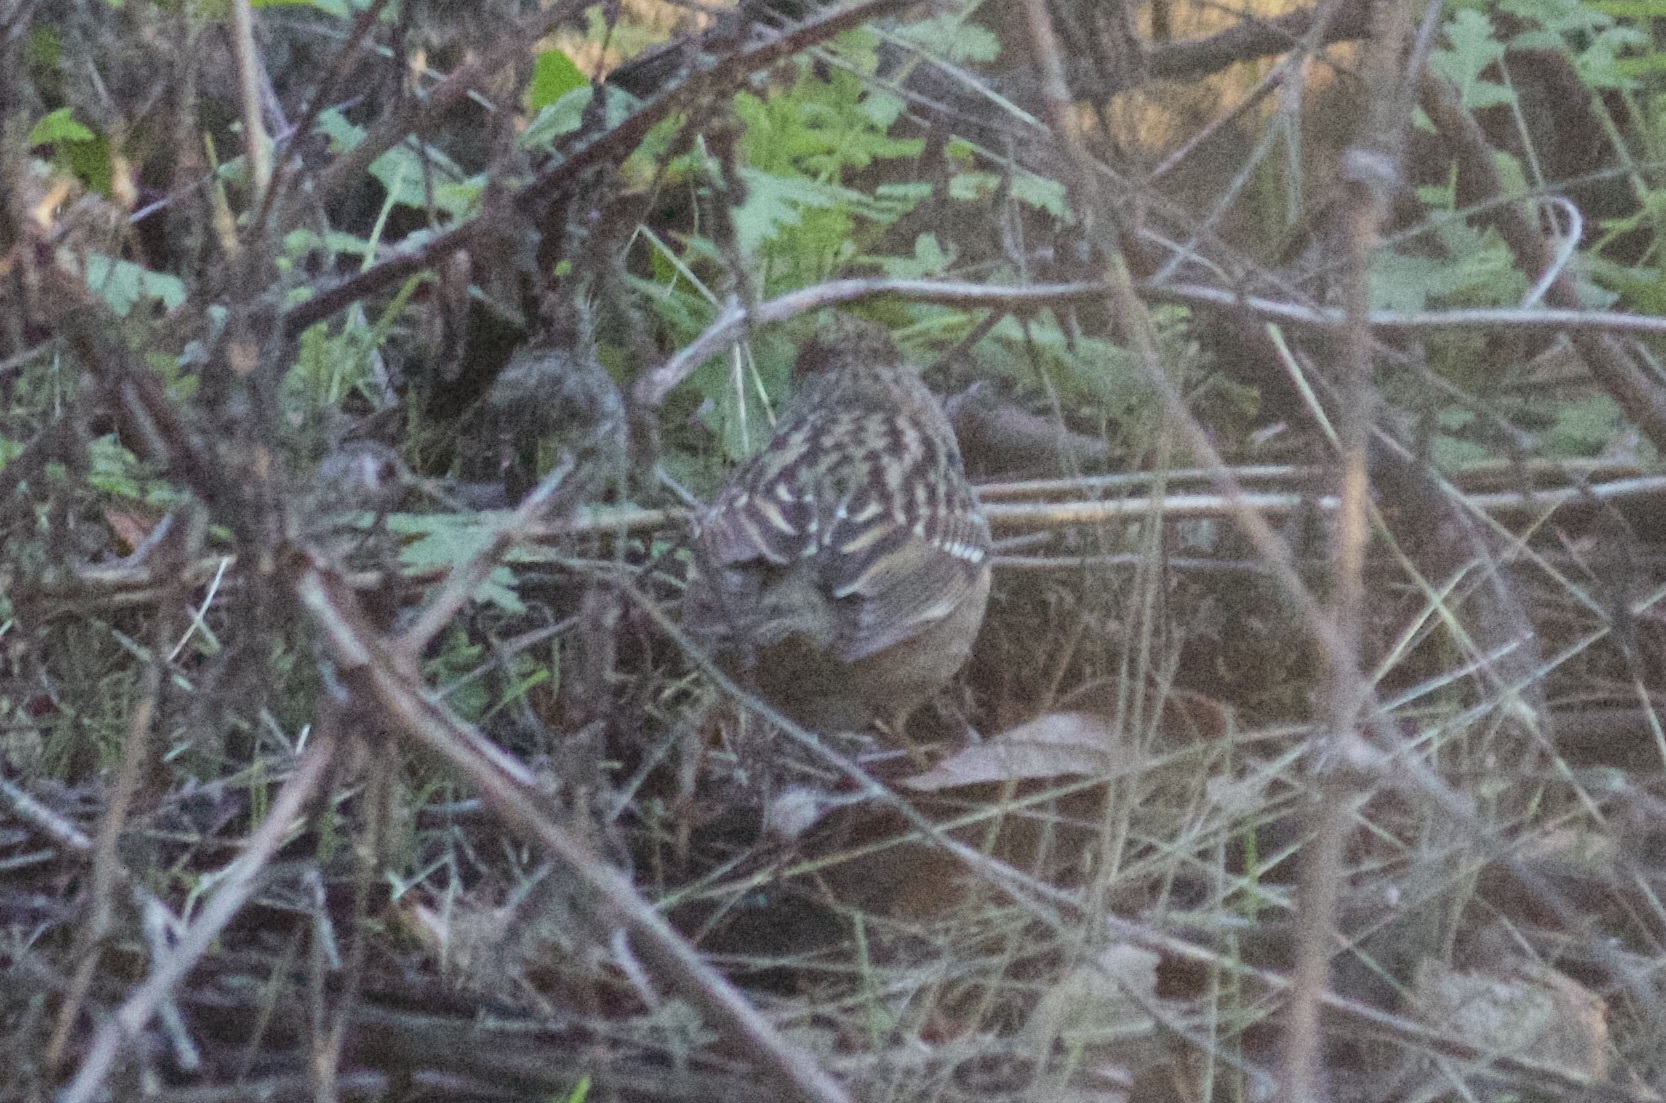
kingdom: Animalia
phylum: Chordata
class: Aves
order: Passeriformes
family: Passerellidae
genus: Zonotrichia
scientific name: Zonotrichia atricapilla
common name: Golden-crowned sparrow
